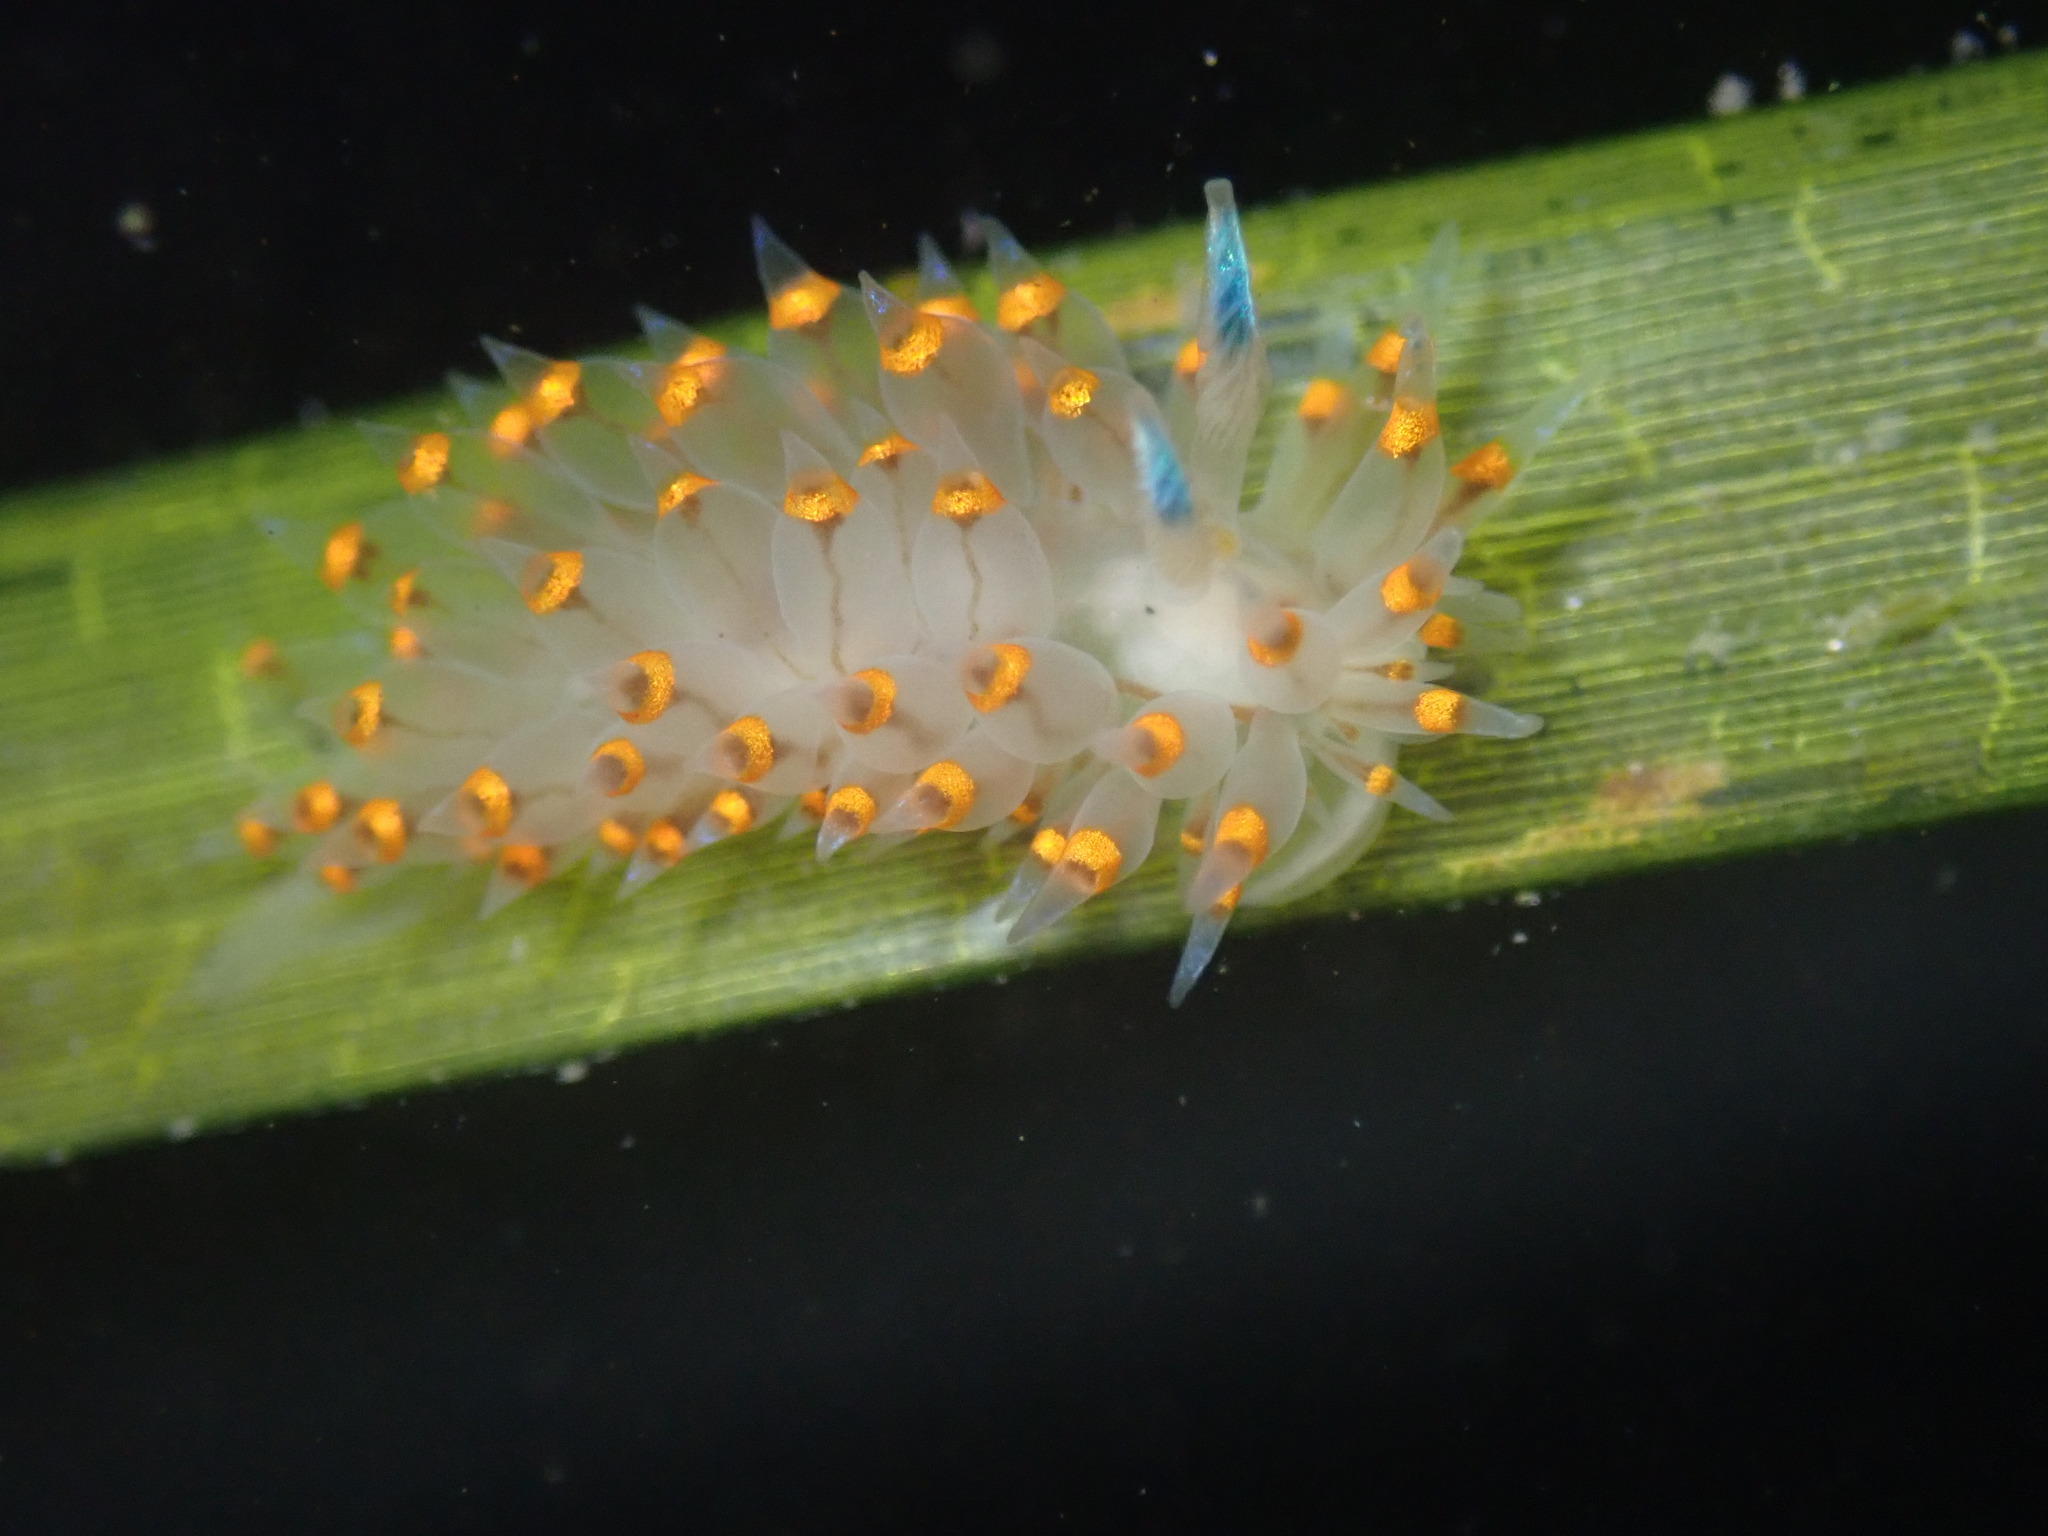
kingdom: Animalia
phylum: Mollusca
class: Gastropoda
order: Nudibranchia
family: Janolidae
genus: Antiopella
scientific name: Antiopella barbarensis
